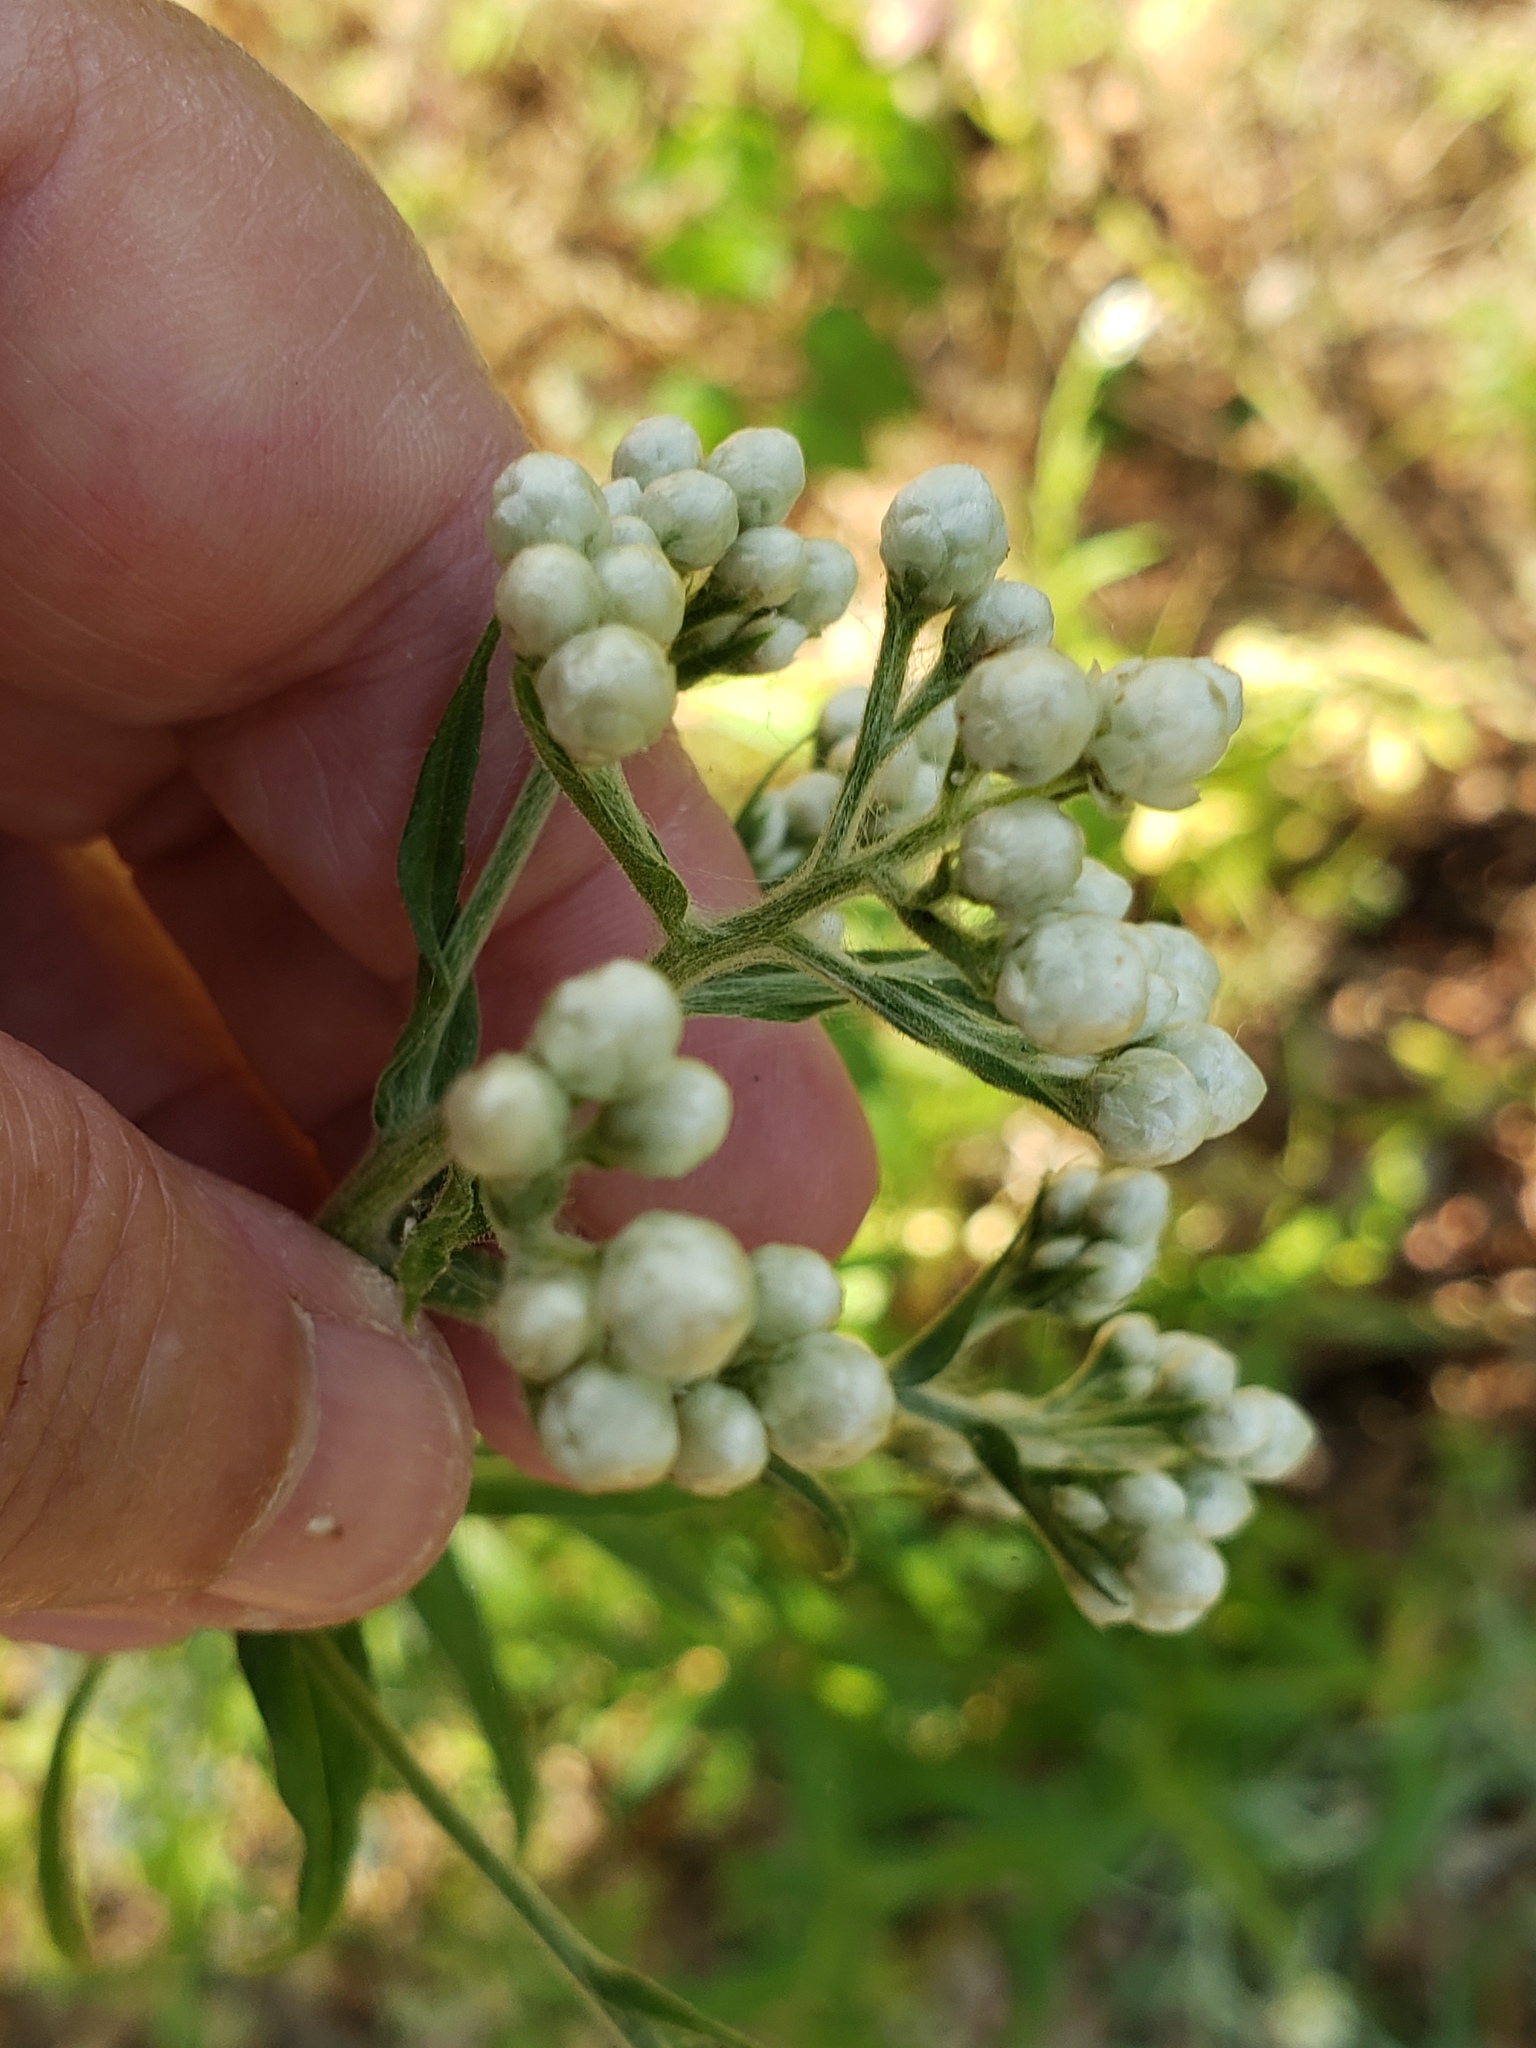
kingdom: Plantae
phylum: Tracheophyta
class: Magnoliopsida
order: Asterales
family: Asteraceae
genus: Pseudognaphalium
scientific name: Pseudognaphalium californicum
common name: California rabbit-tobacco
